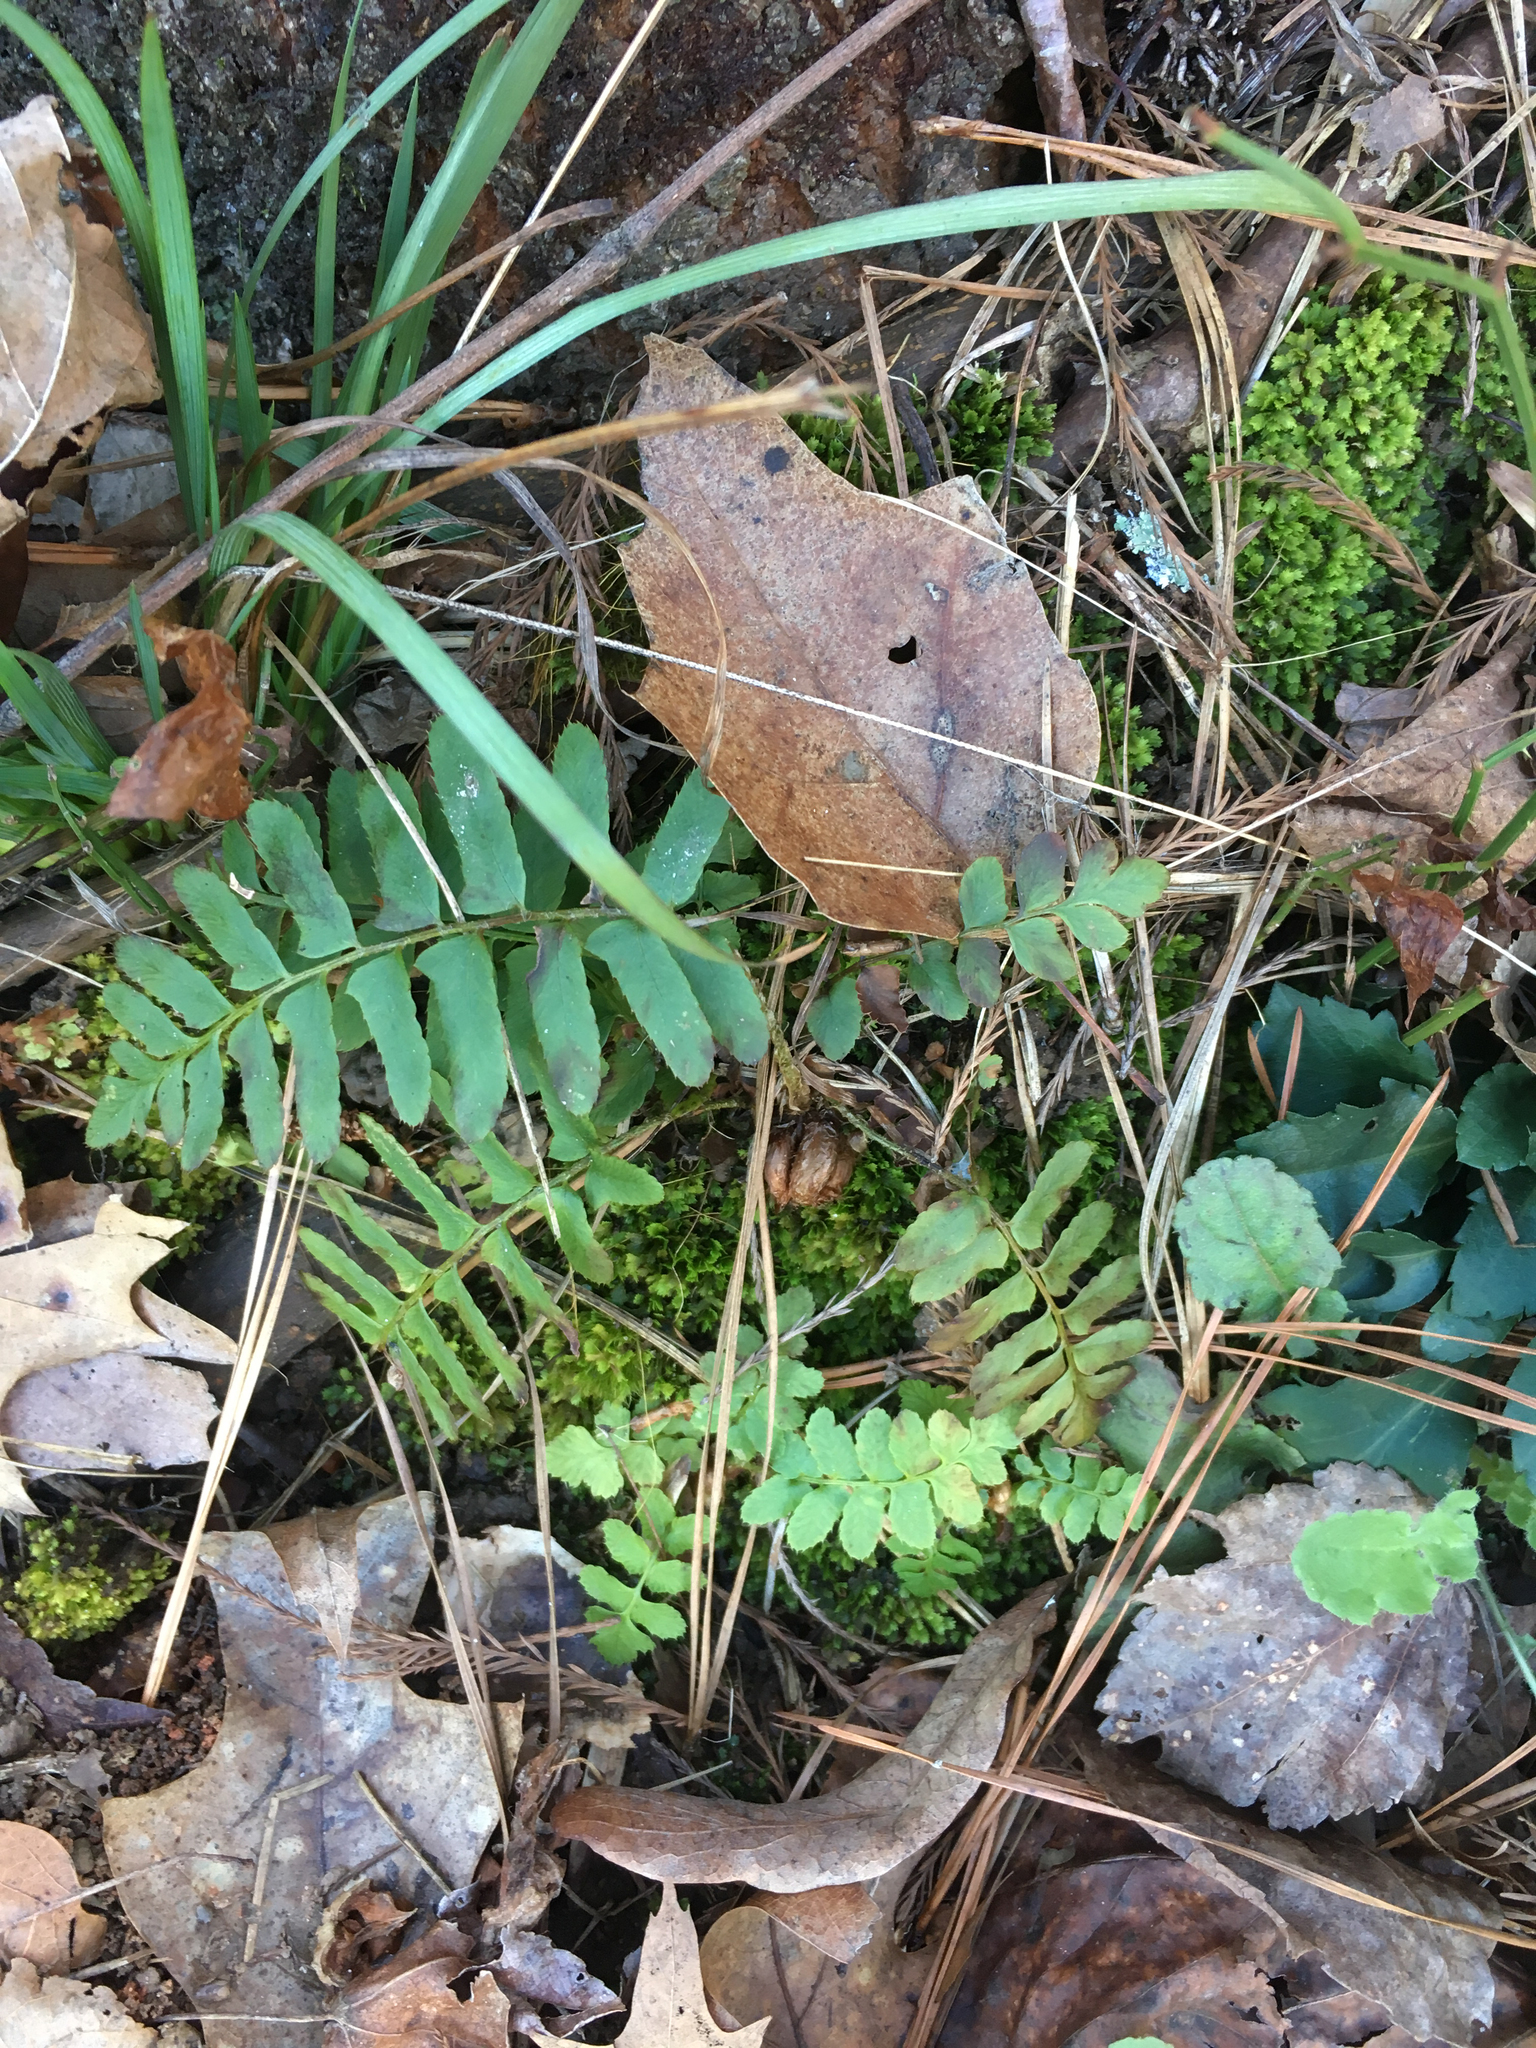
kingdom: Plantae
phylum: Tracheophyta
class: Polypodiopsida
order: Polypodiales
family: Dryopteridaceae
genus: Polystichum
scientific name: Polystichum acrostichoides
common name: Christmas fern
